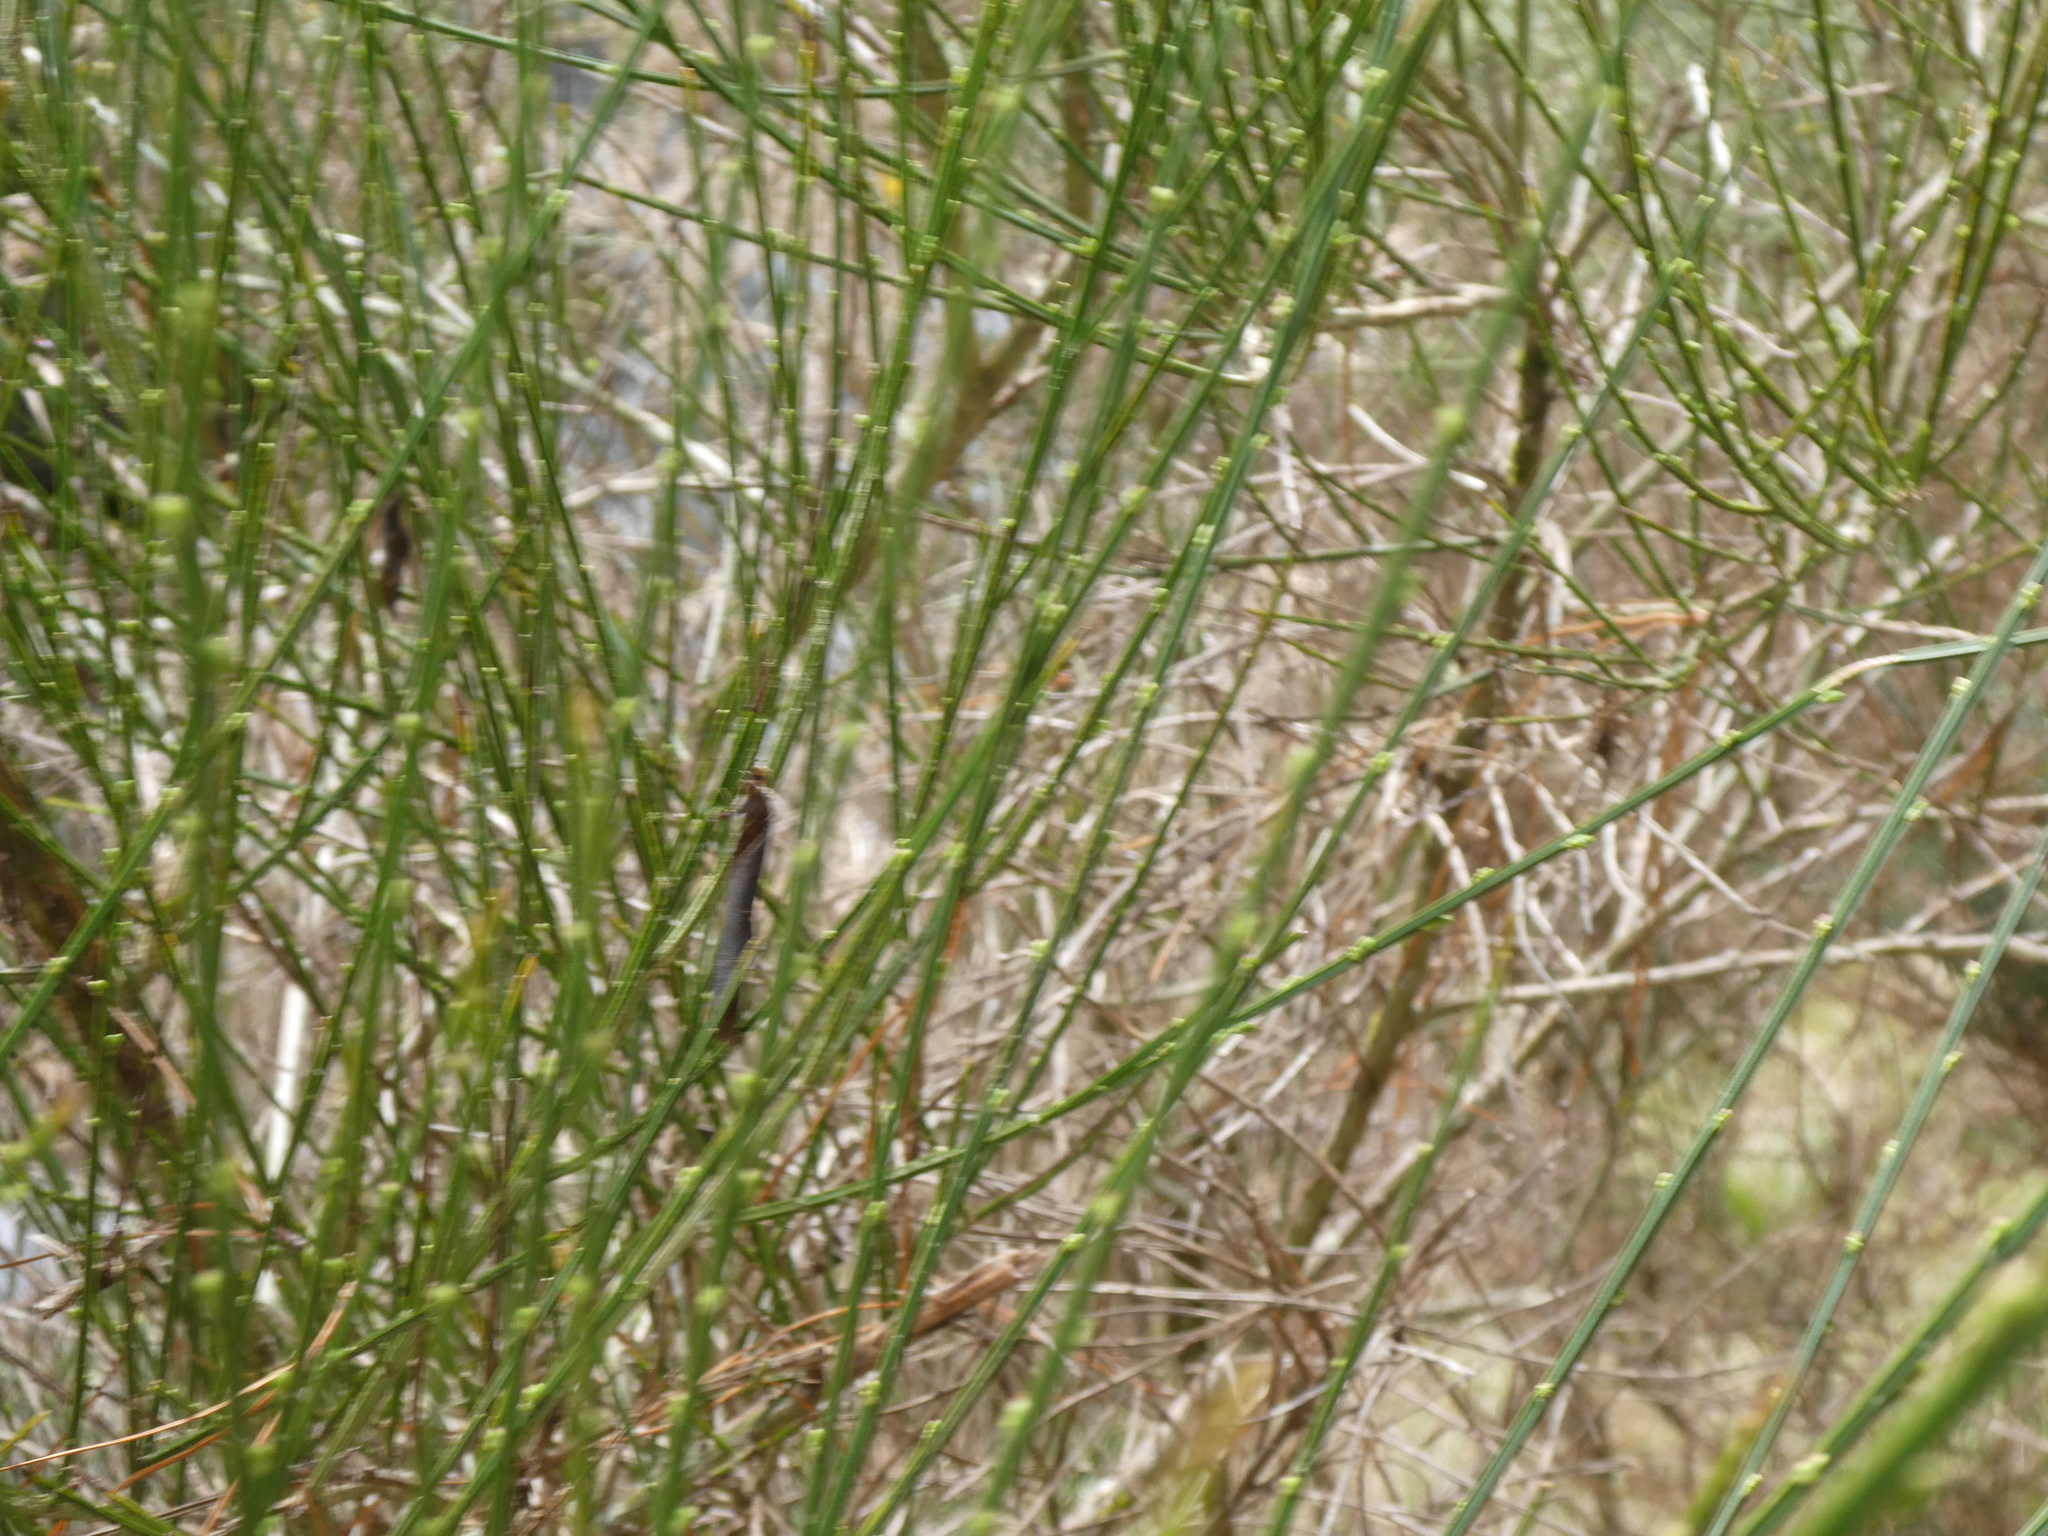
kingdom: Plantae
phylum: Tracheophyta
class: Magnoliopsida
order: Fabales
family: Fabaceae
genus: Cytisus
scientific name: Cytisus scoparius
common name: Scotch broom
